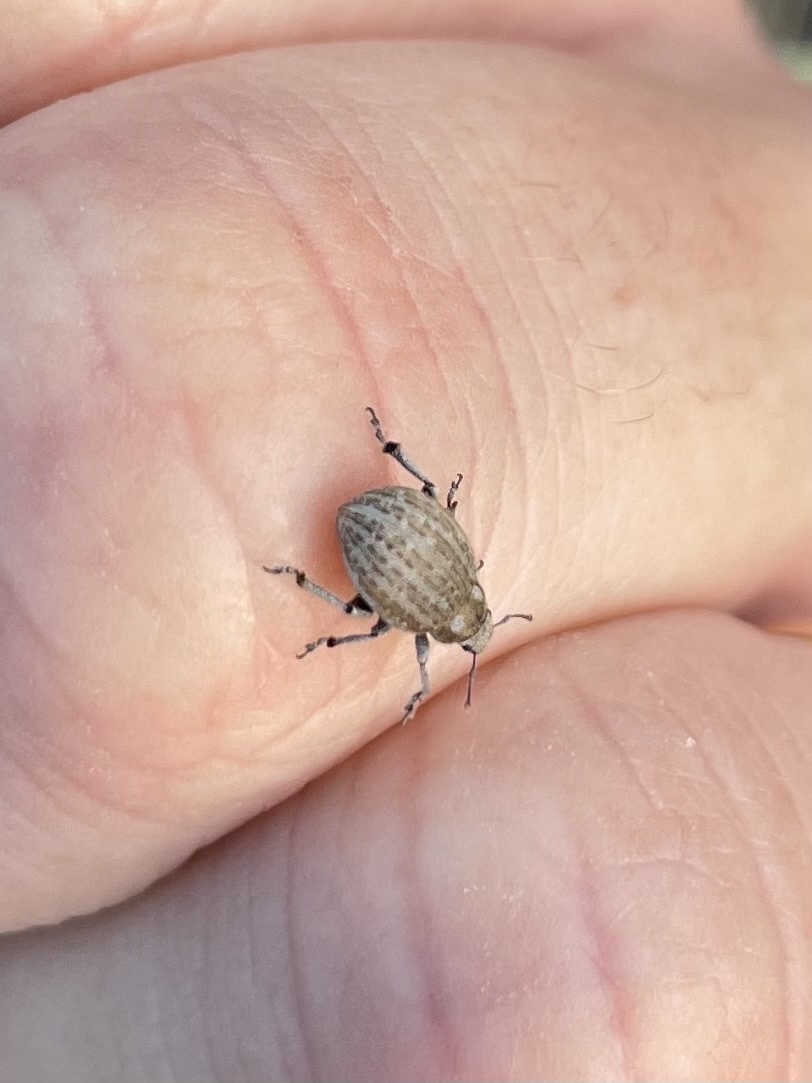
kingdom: Animalia
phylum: Arthropoda
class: Insecta
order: Coleoptera
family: Curculionidae
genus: Philopedon
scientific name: Philopedon plagiatum
